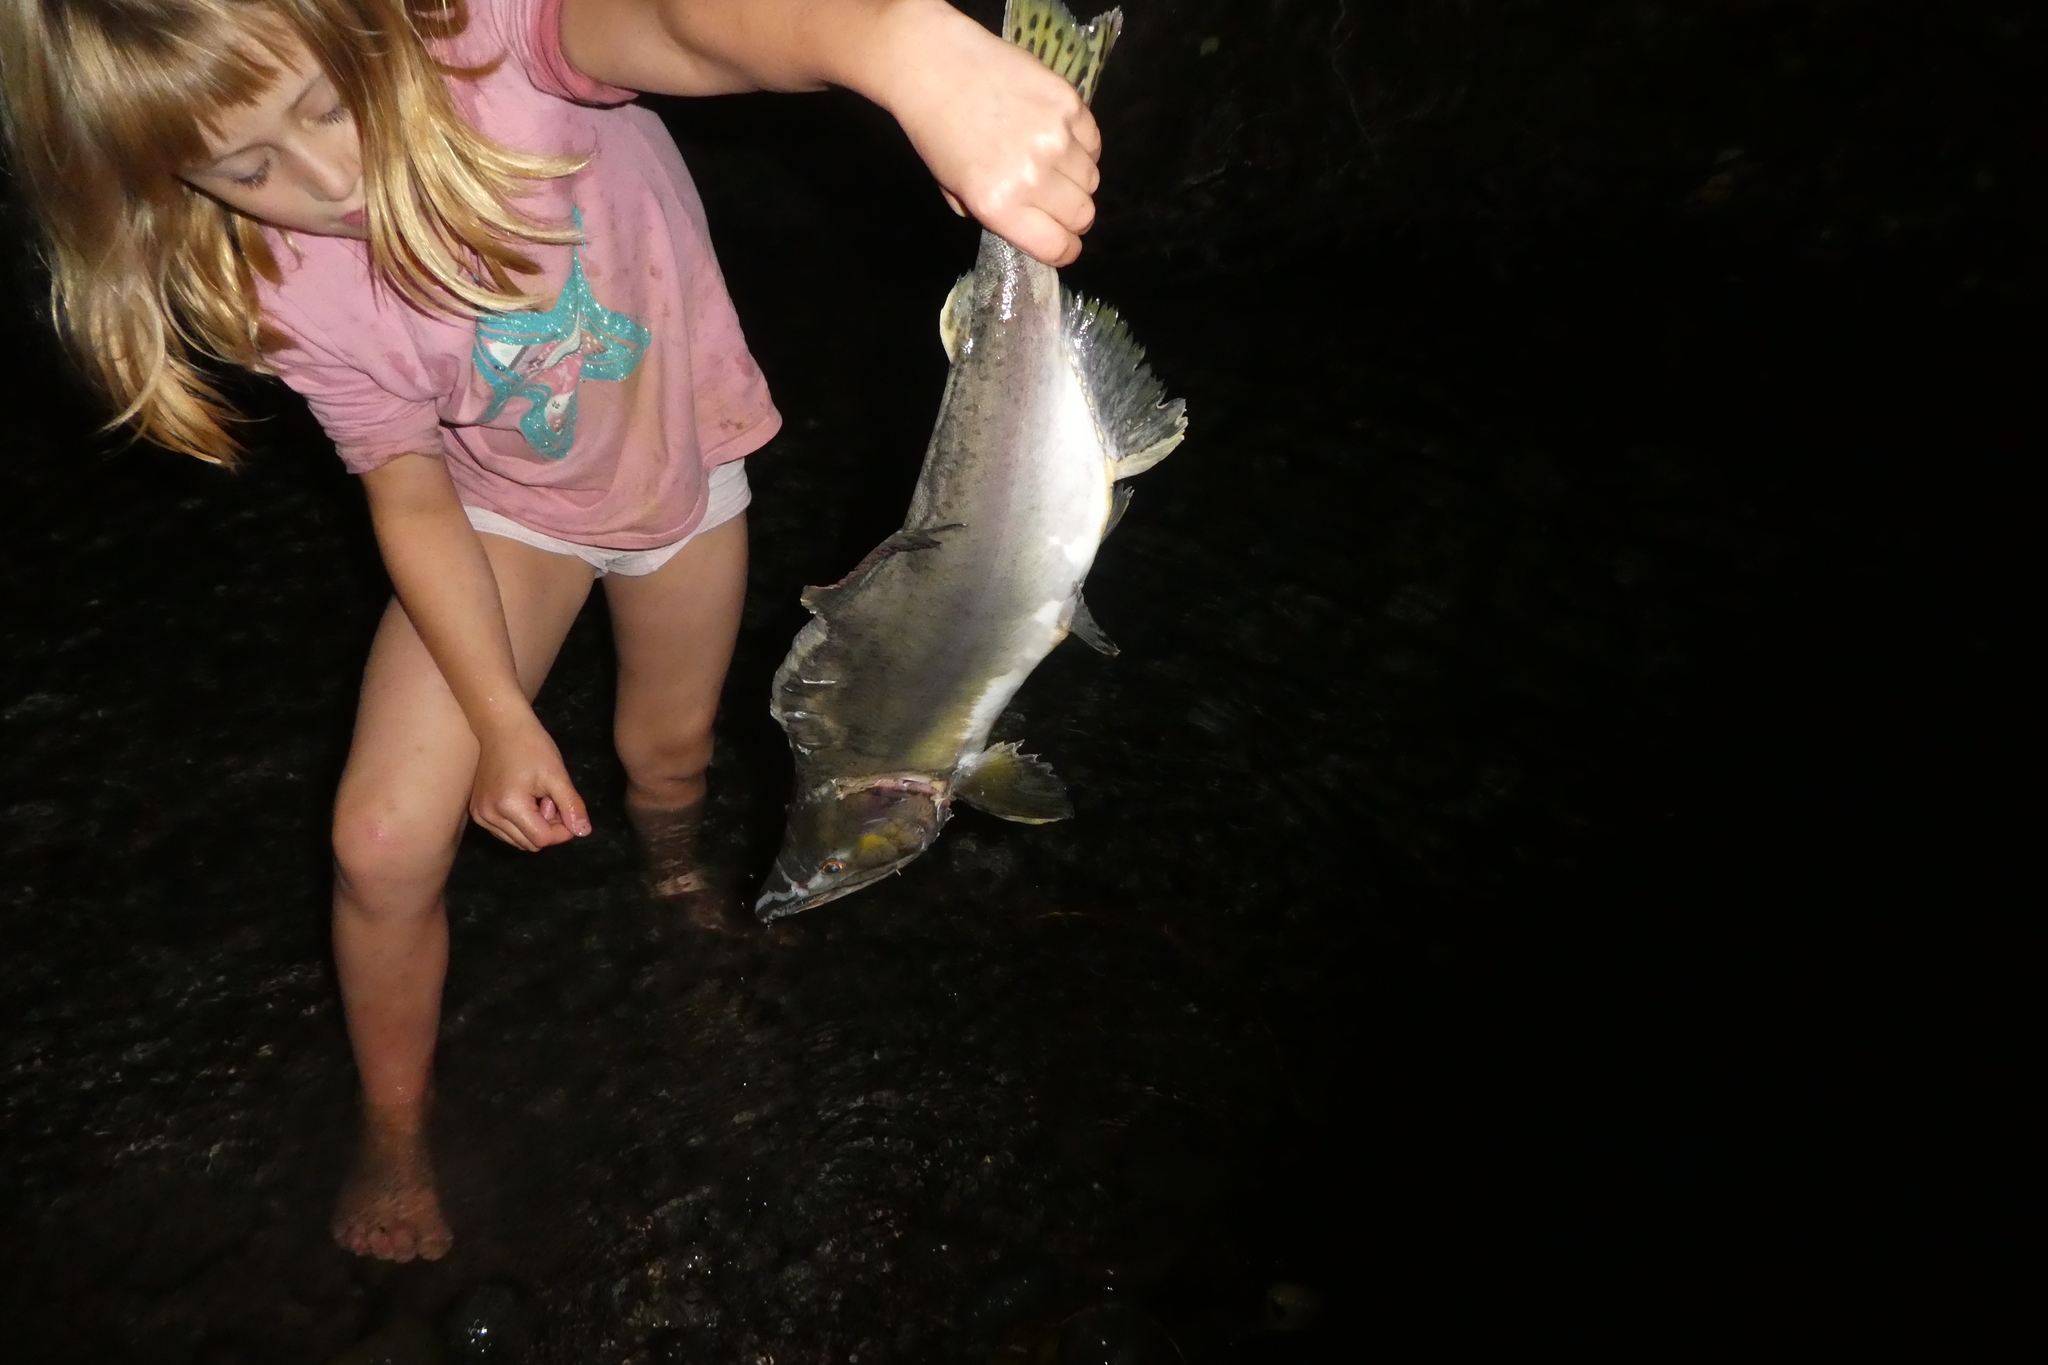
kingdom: Animalia
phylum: Chordata
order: Salmoniformes
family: Salmonidae
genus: Oncorhynchus
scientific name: Oncorhynchus gorbuscha
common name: Humpback salmon
